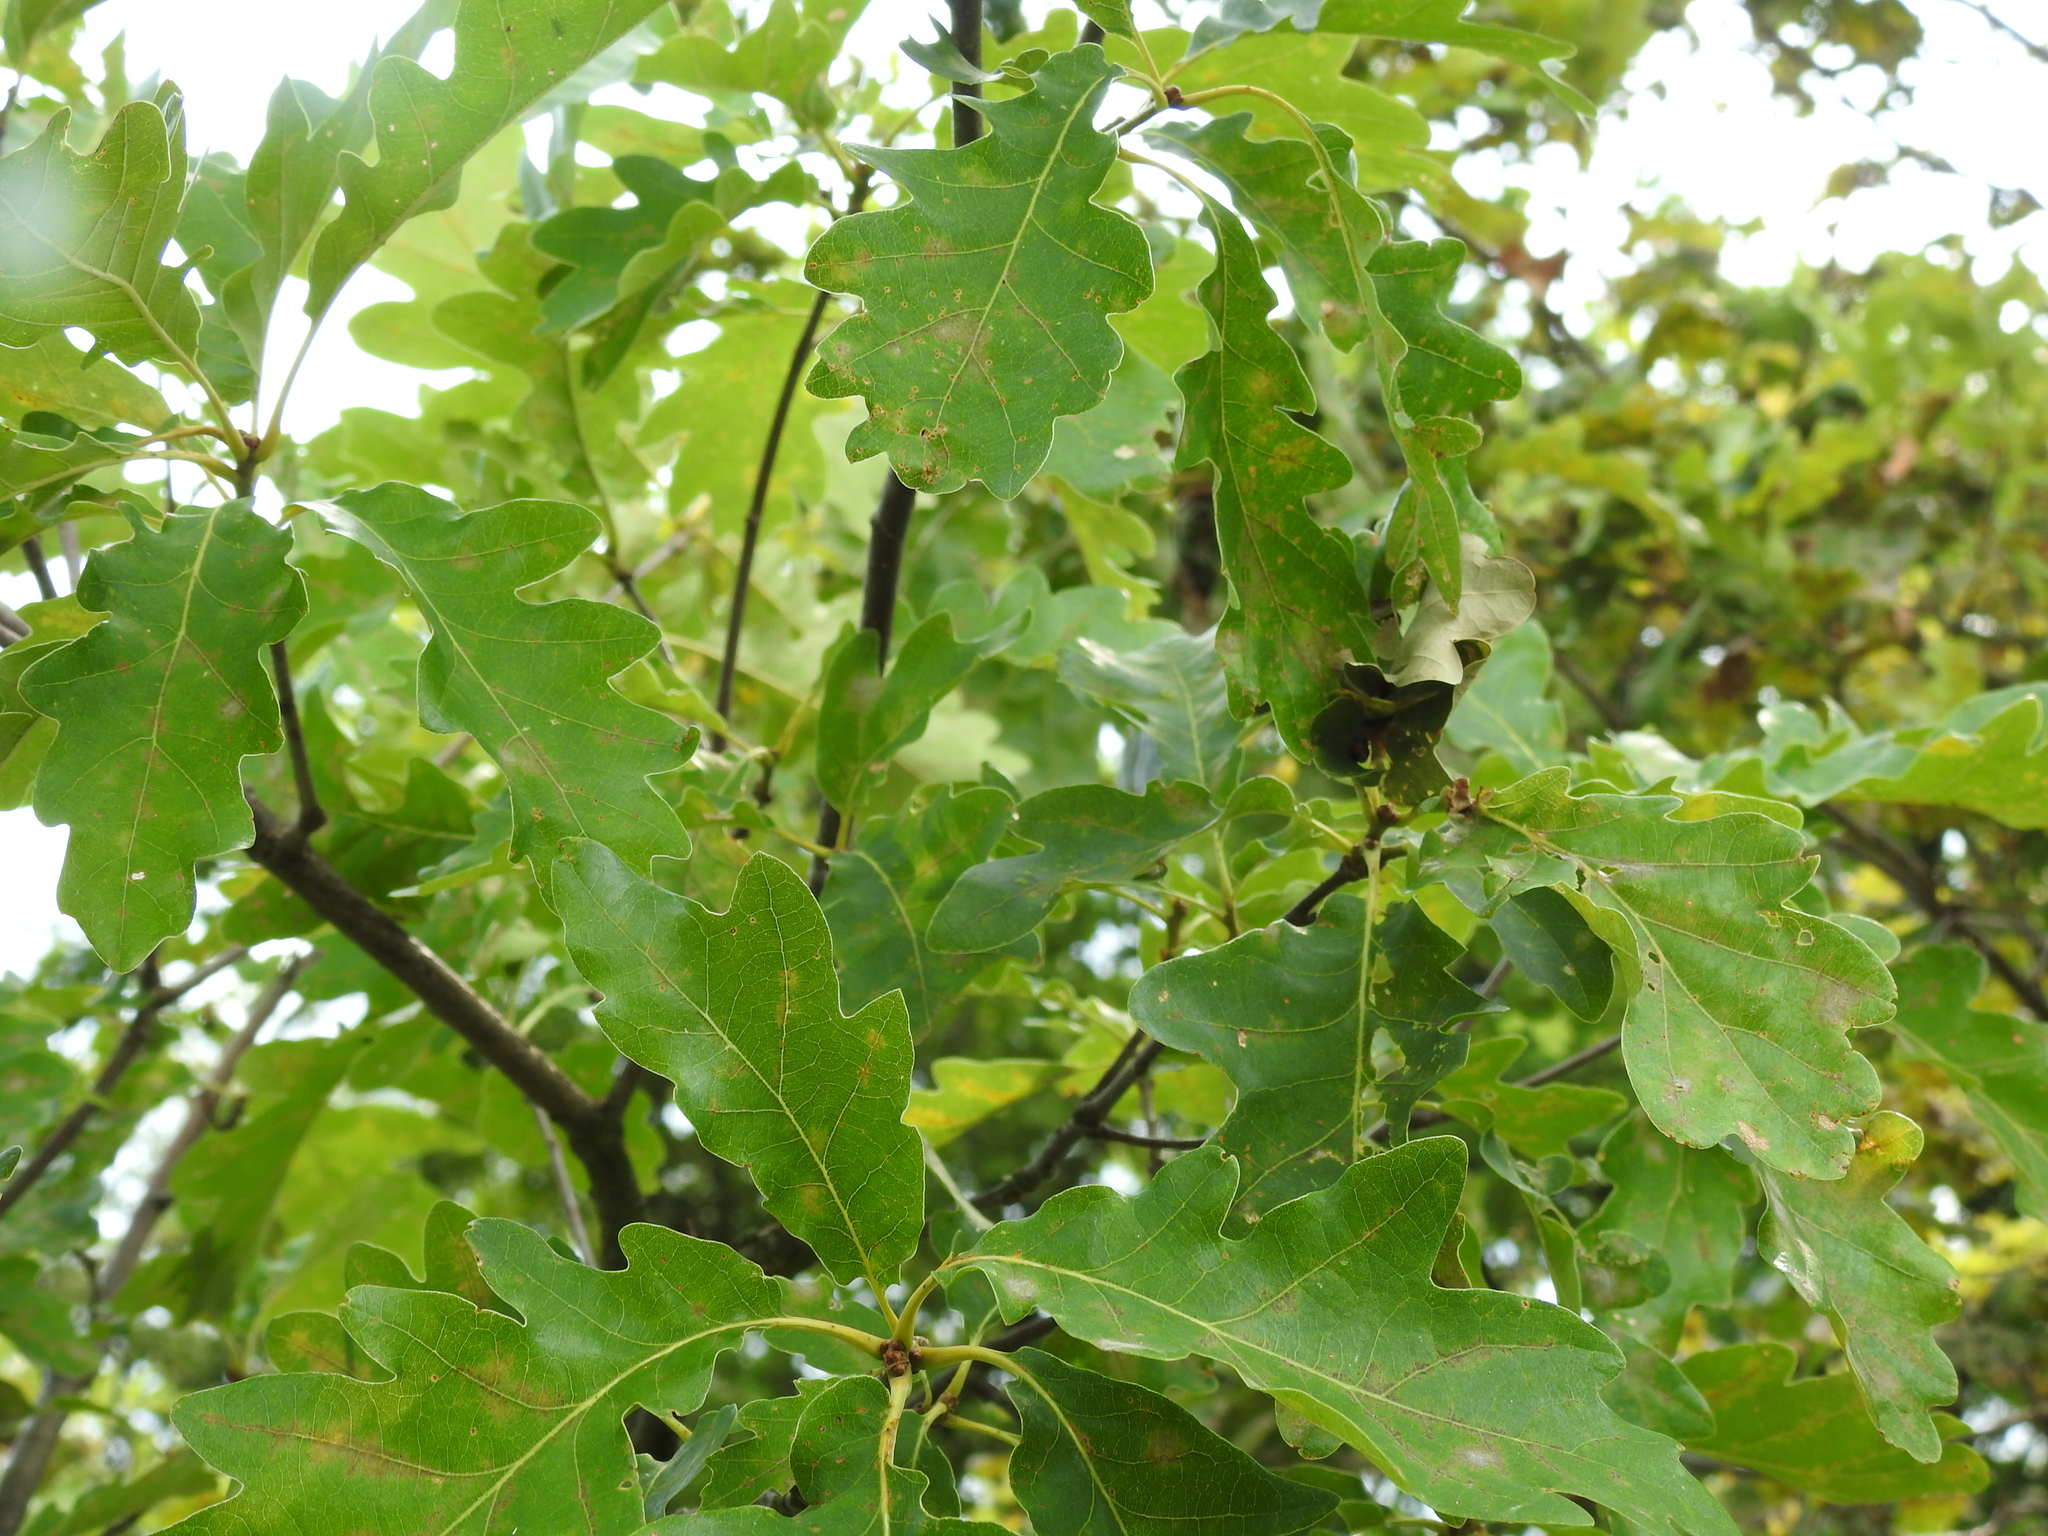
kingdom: Animalia
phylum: Arthropoda
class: Insecta
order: Hymenoptera
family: Cynipidae
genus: Andricus
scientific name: Andricus curvator
